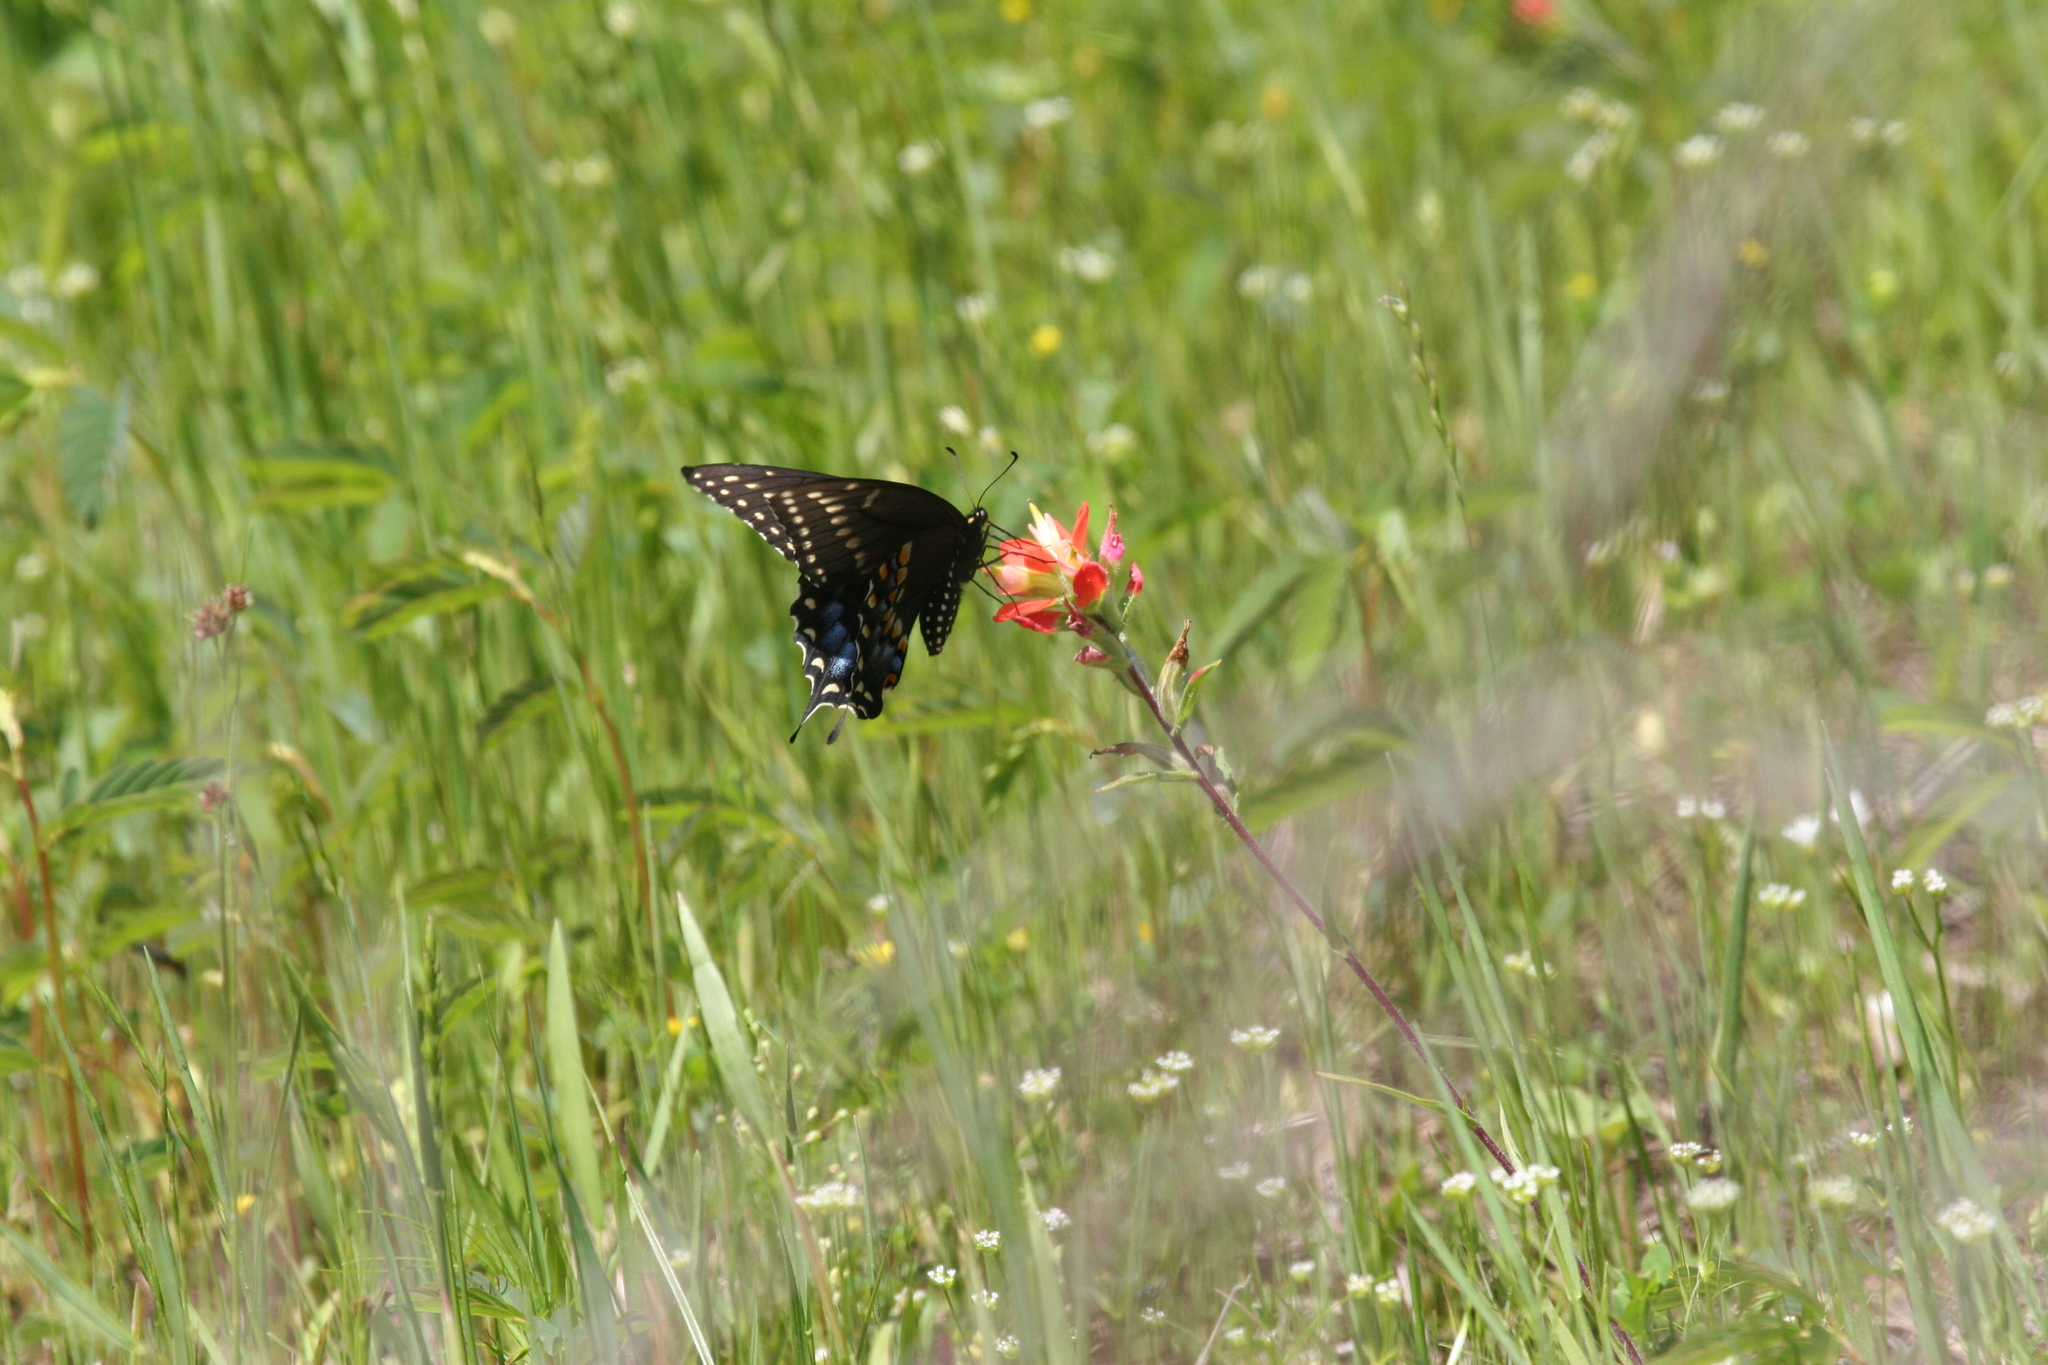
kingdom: Animalia
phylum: Arthropoda
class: Insecta
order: Lepidoptera
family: Papilionidae
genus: Papilio
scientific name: Papilio polyxenes
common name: Black swallowtail
